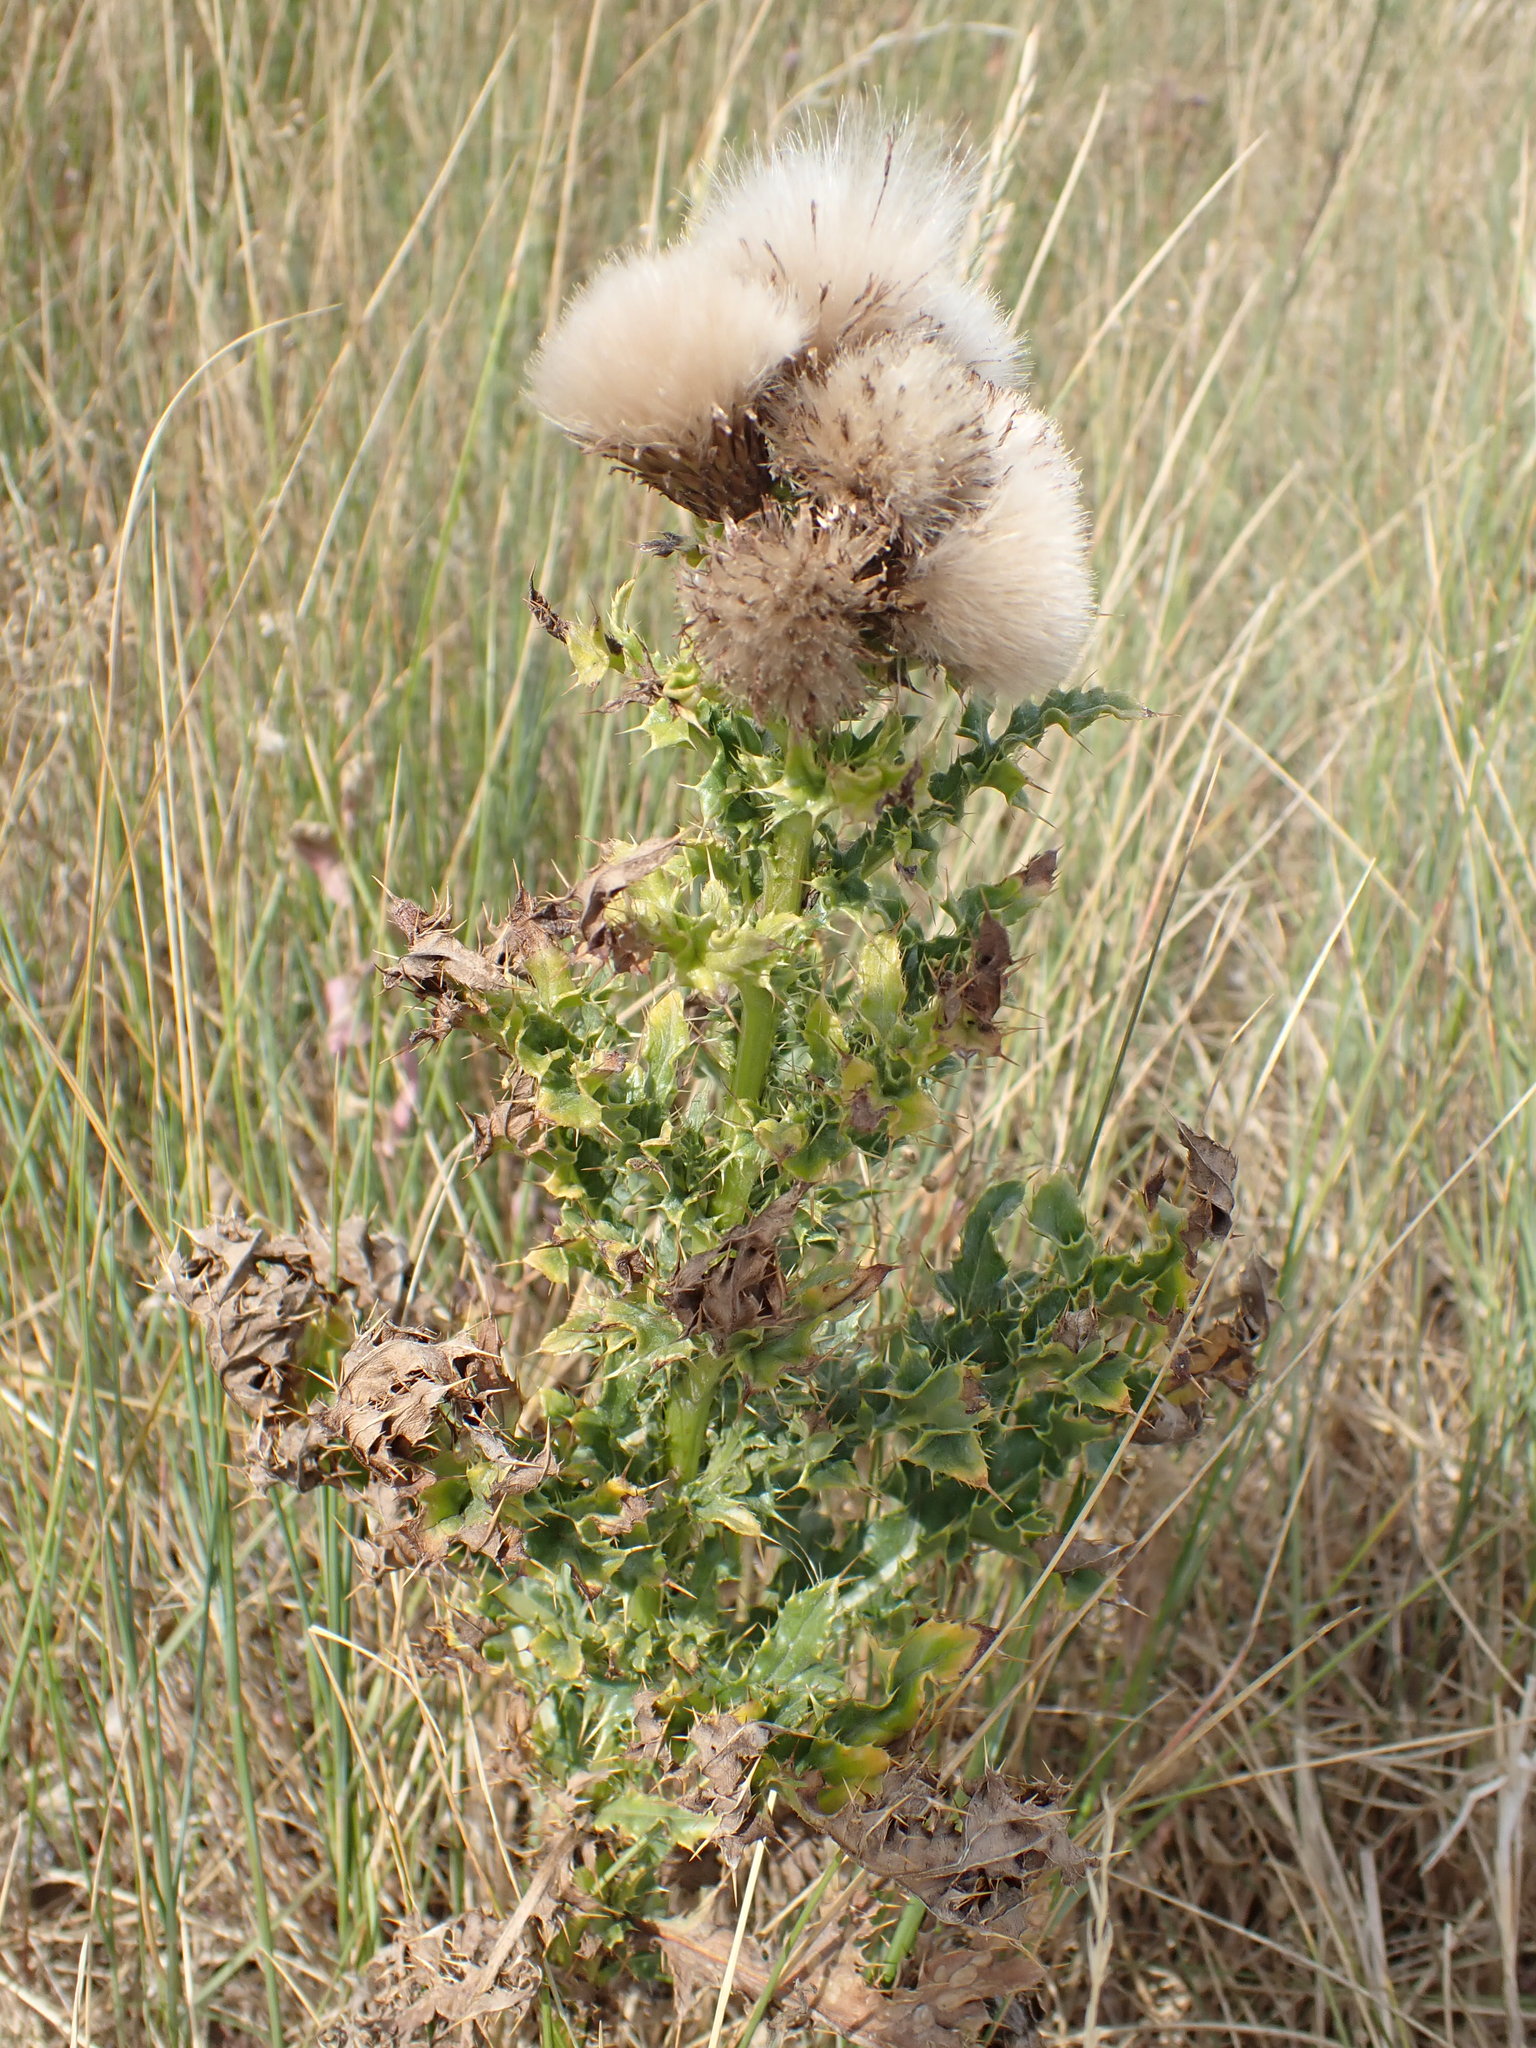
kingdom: Plantae
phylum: Tracheophyta
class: Magnoliopsida
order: Asterales
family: Asteraceae
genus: Cirsium
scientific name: Cirsium arvense
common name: Creeping thistle
